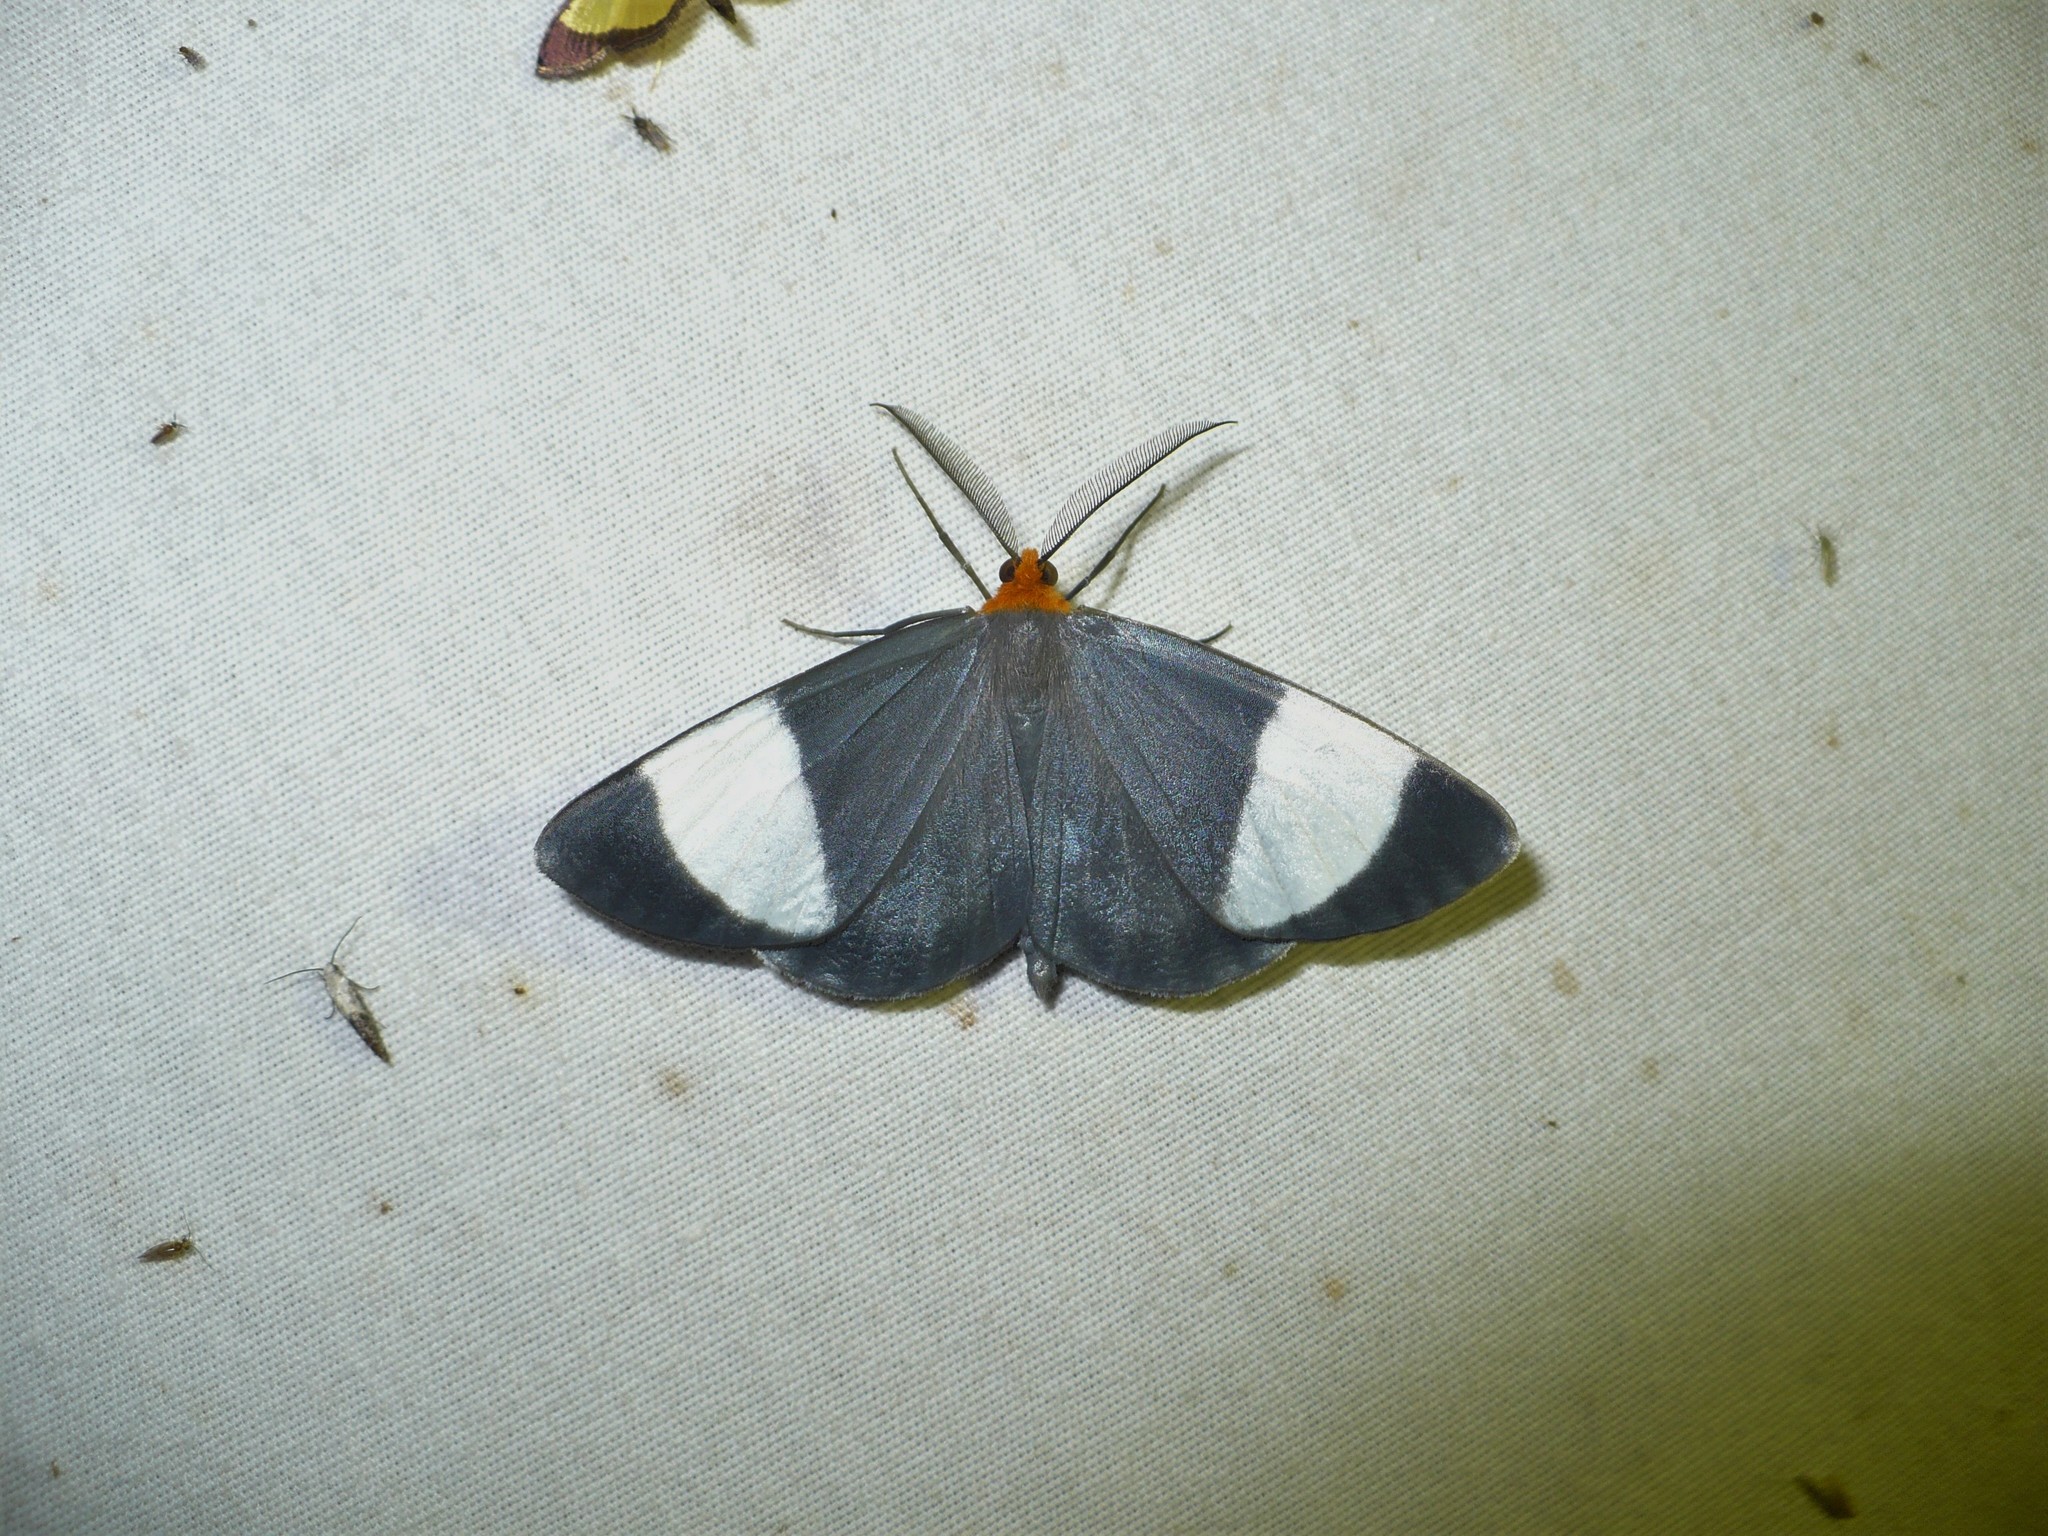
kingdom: Animalia
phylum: Arthropoda
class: Insecta
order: Lepidoptera
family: Geometridae
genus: Simena
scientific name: Simena luctifera
